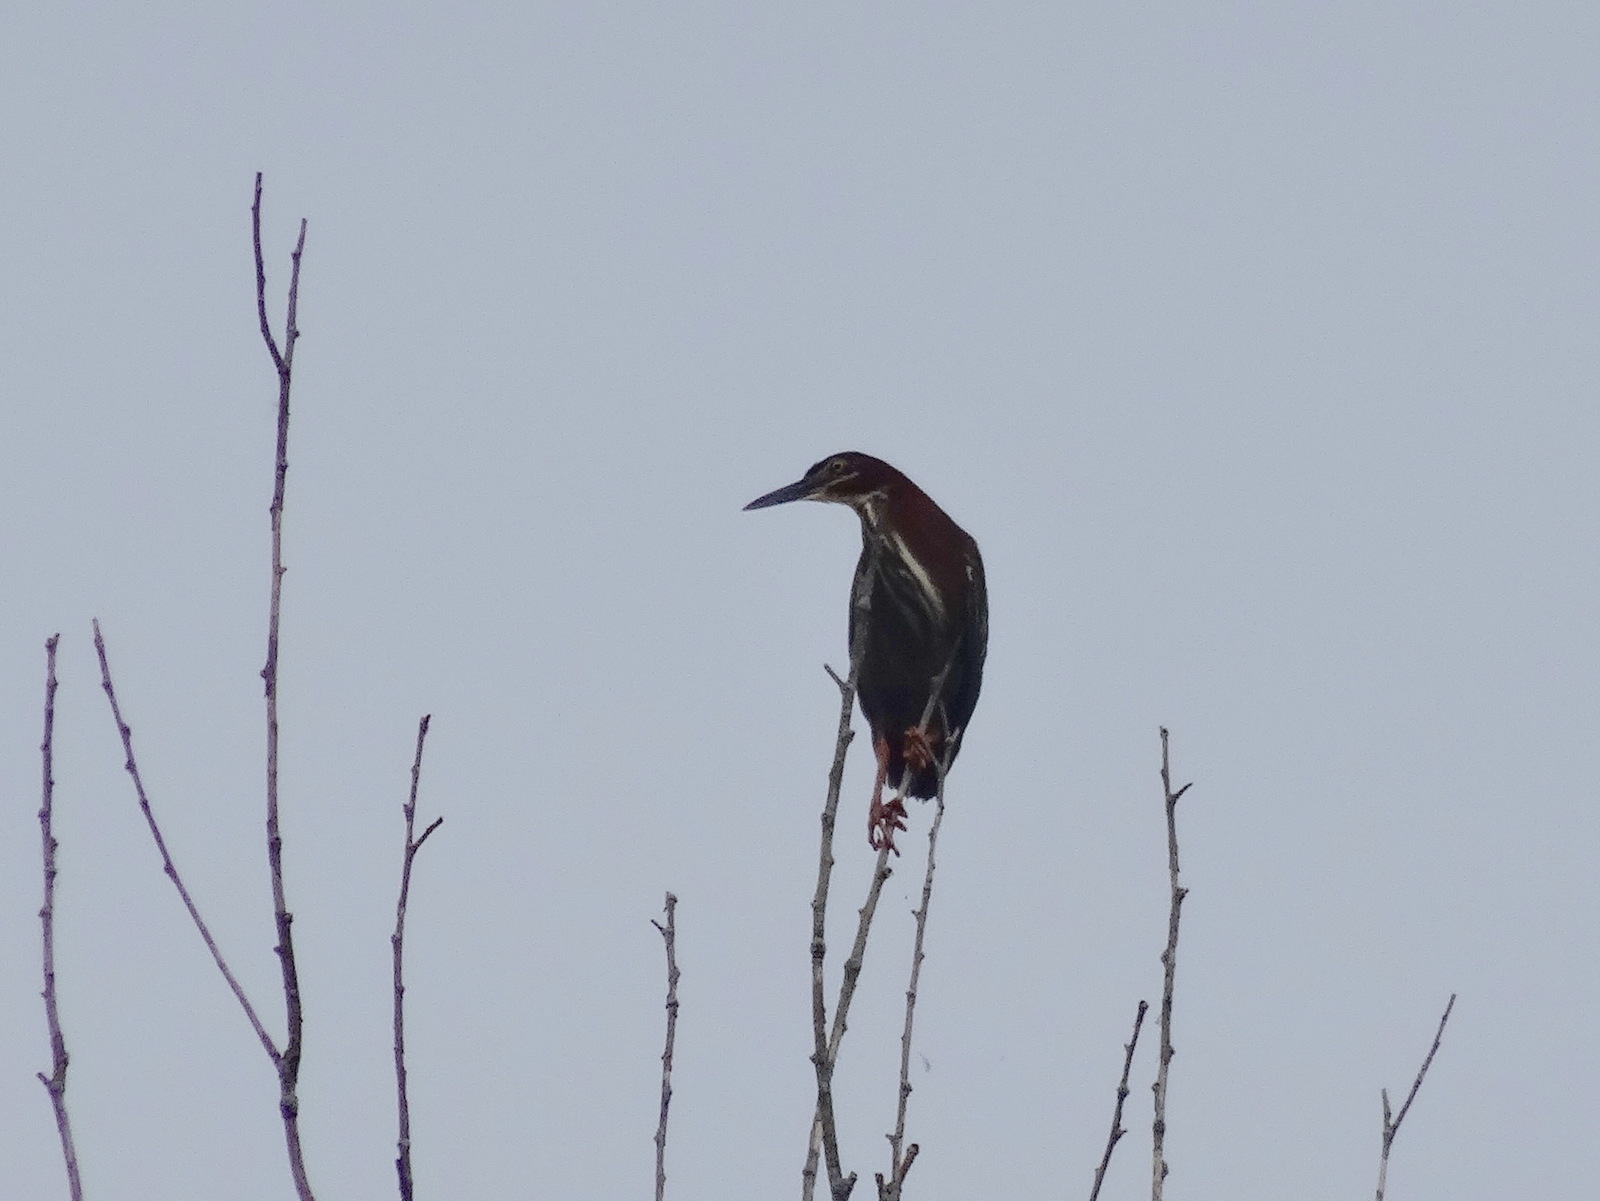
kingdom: Animalia
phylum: Chordata
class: Aves
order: Pelecaniformes
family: Ardeidae
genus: Butorides
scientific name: Butorides virescens
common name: Green heron
